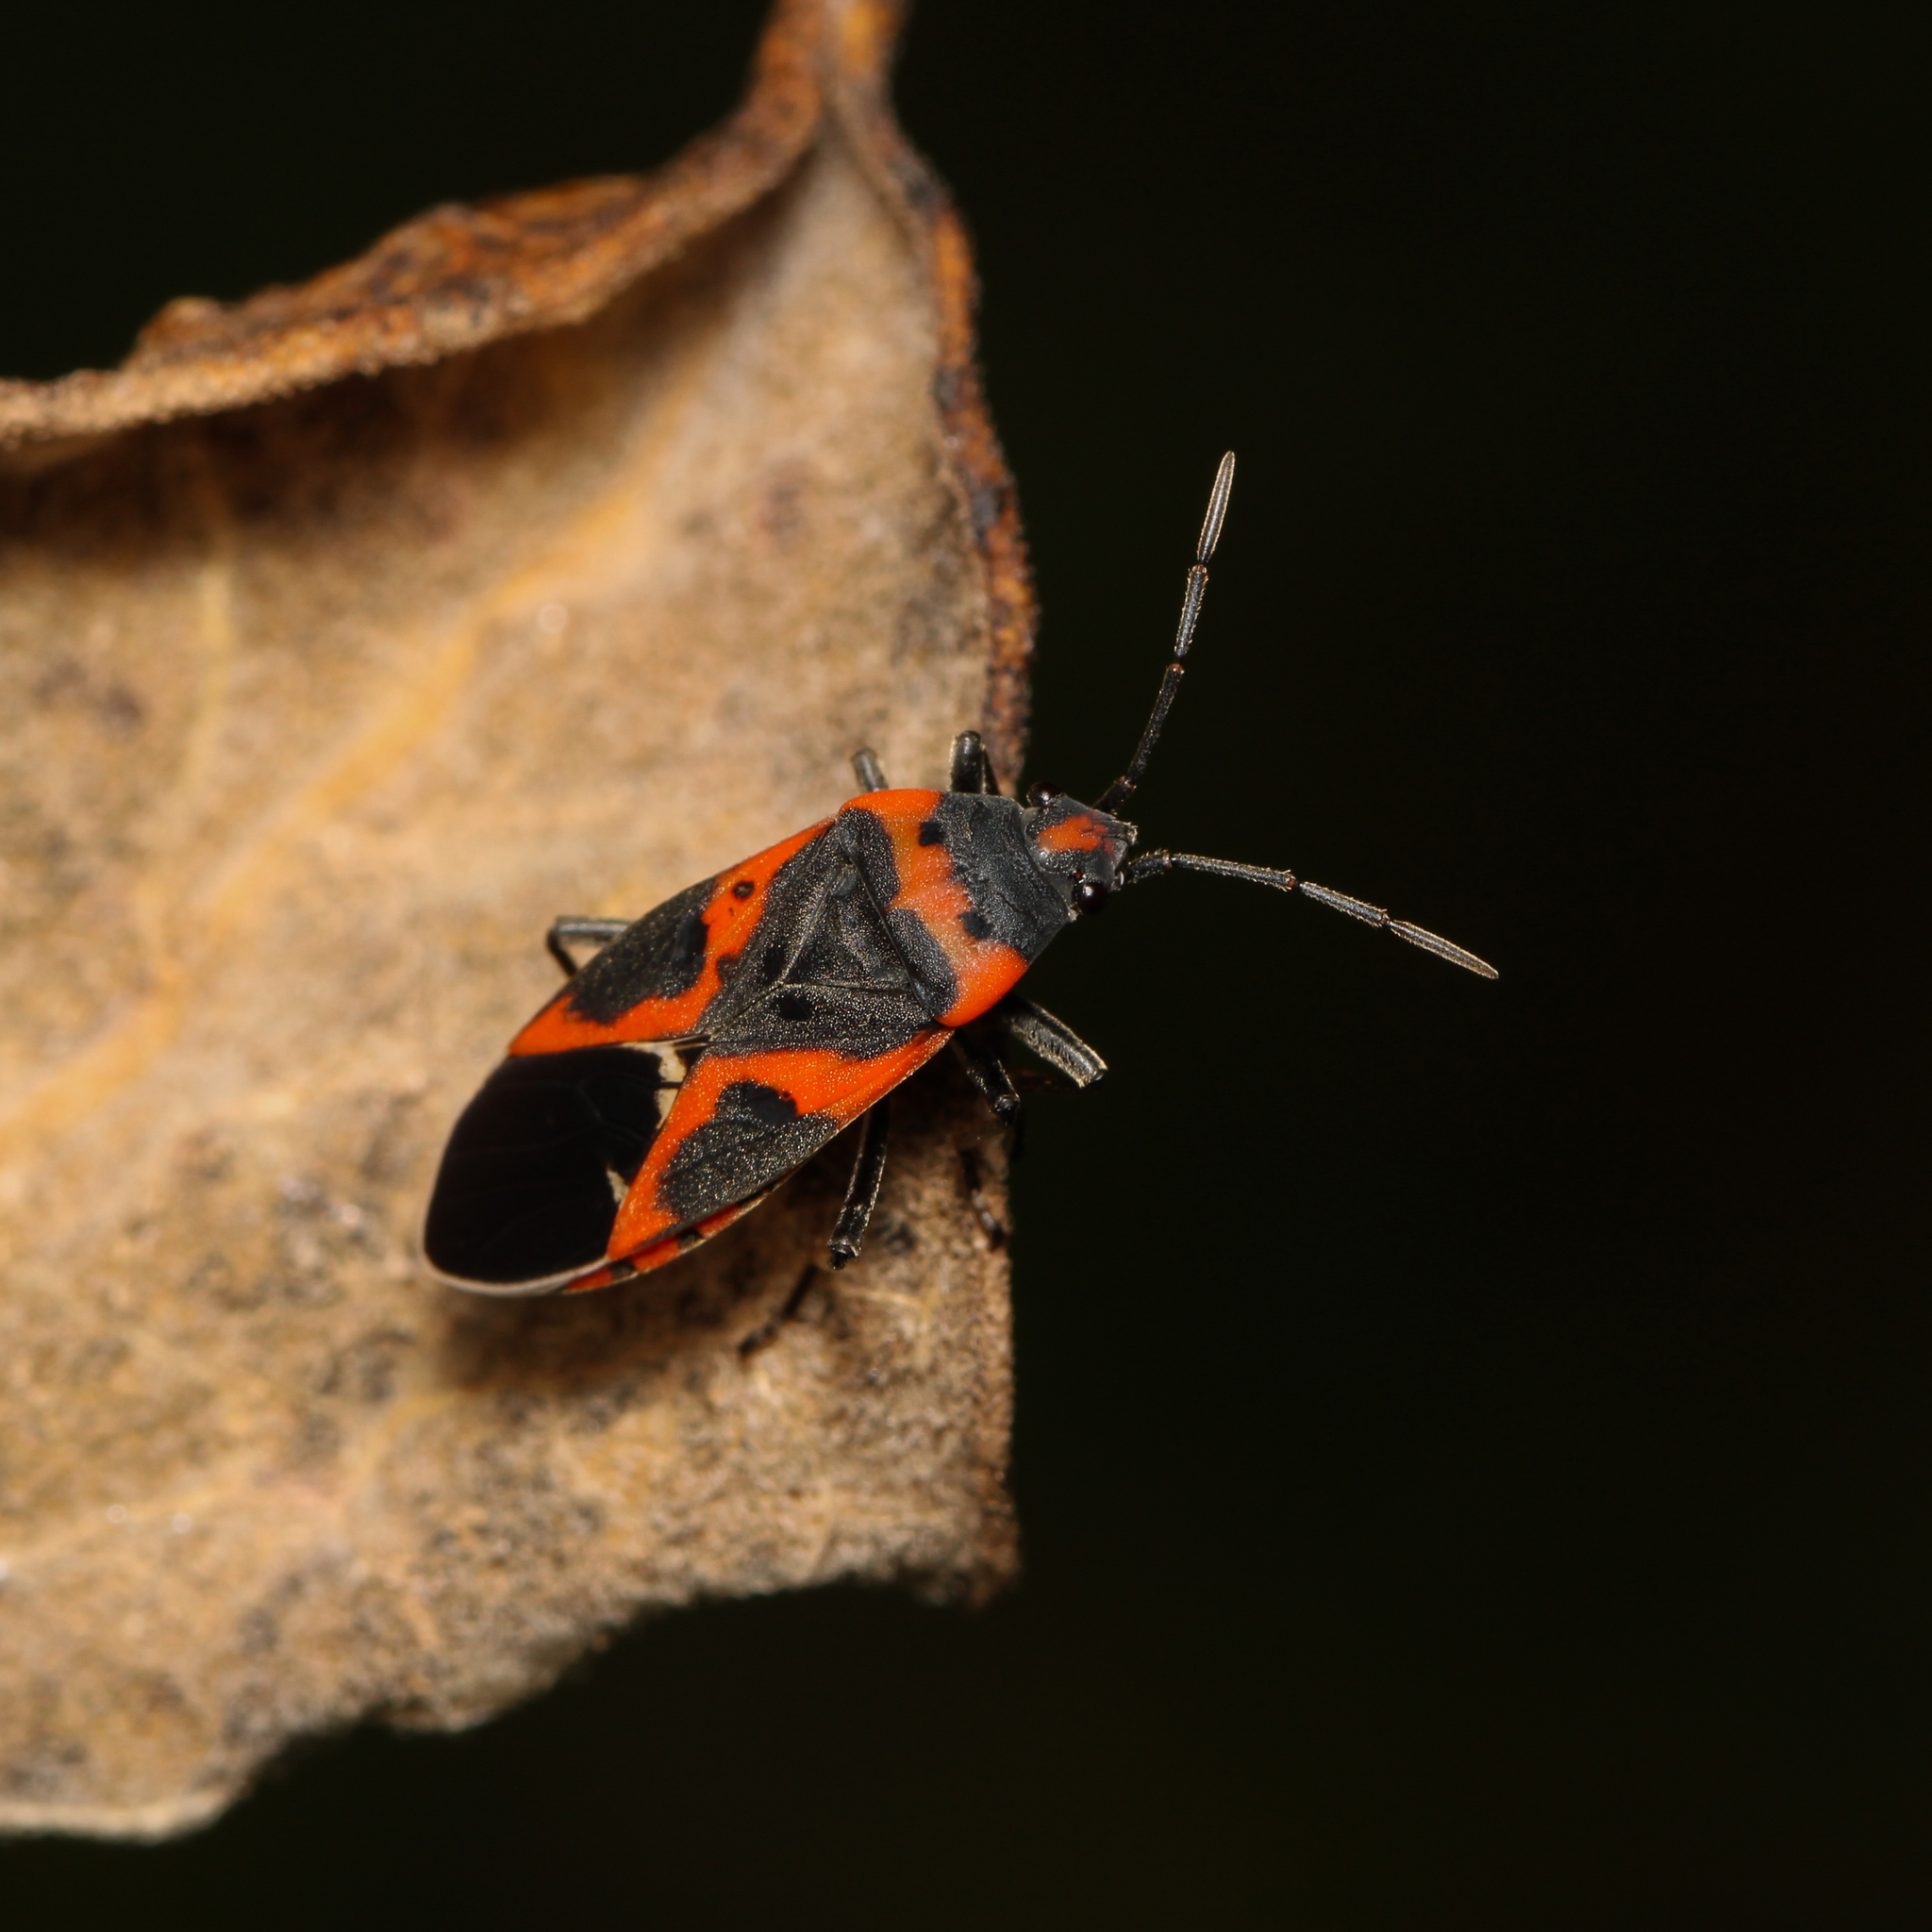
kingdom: Animalia
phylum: Arthropoda
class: Insecta
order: Hemiptera
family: Lygaeidae
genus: Lygaeus
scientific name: Lygaeus kalmii
